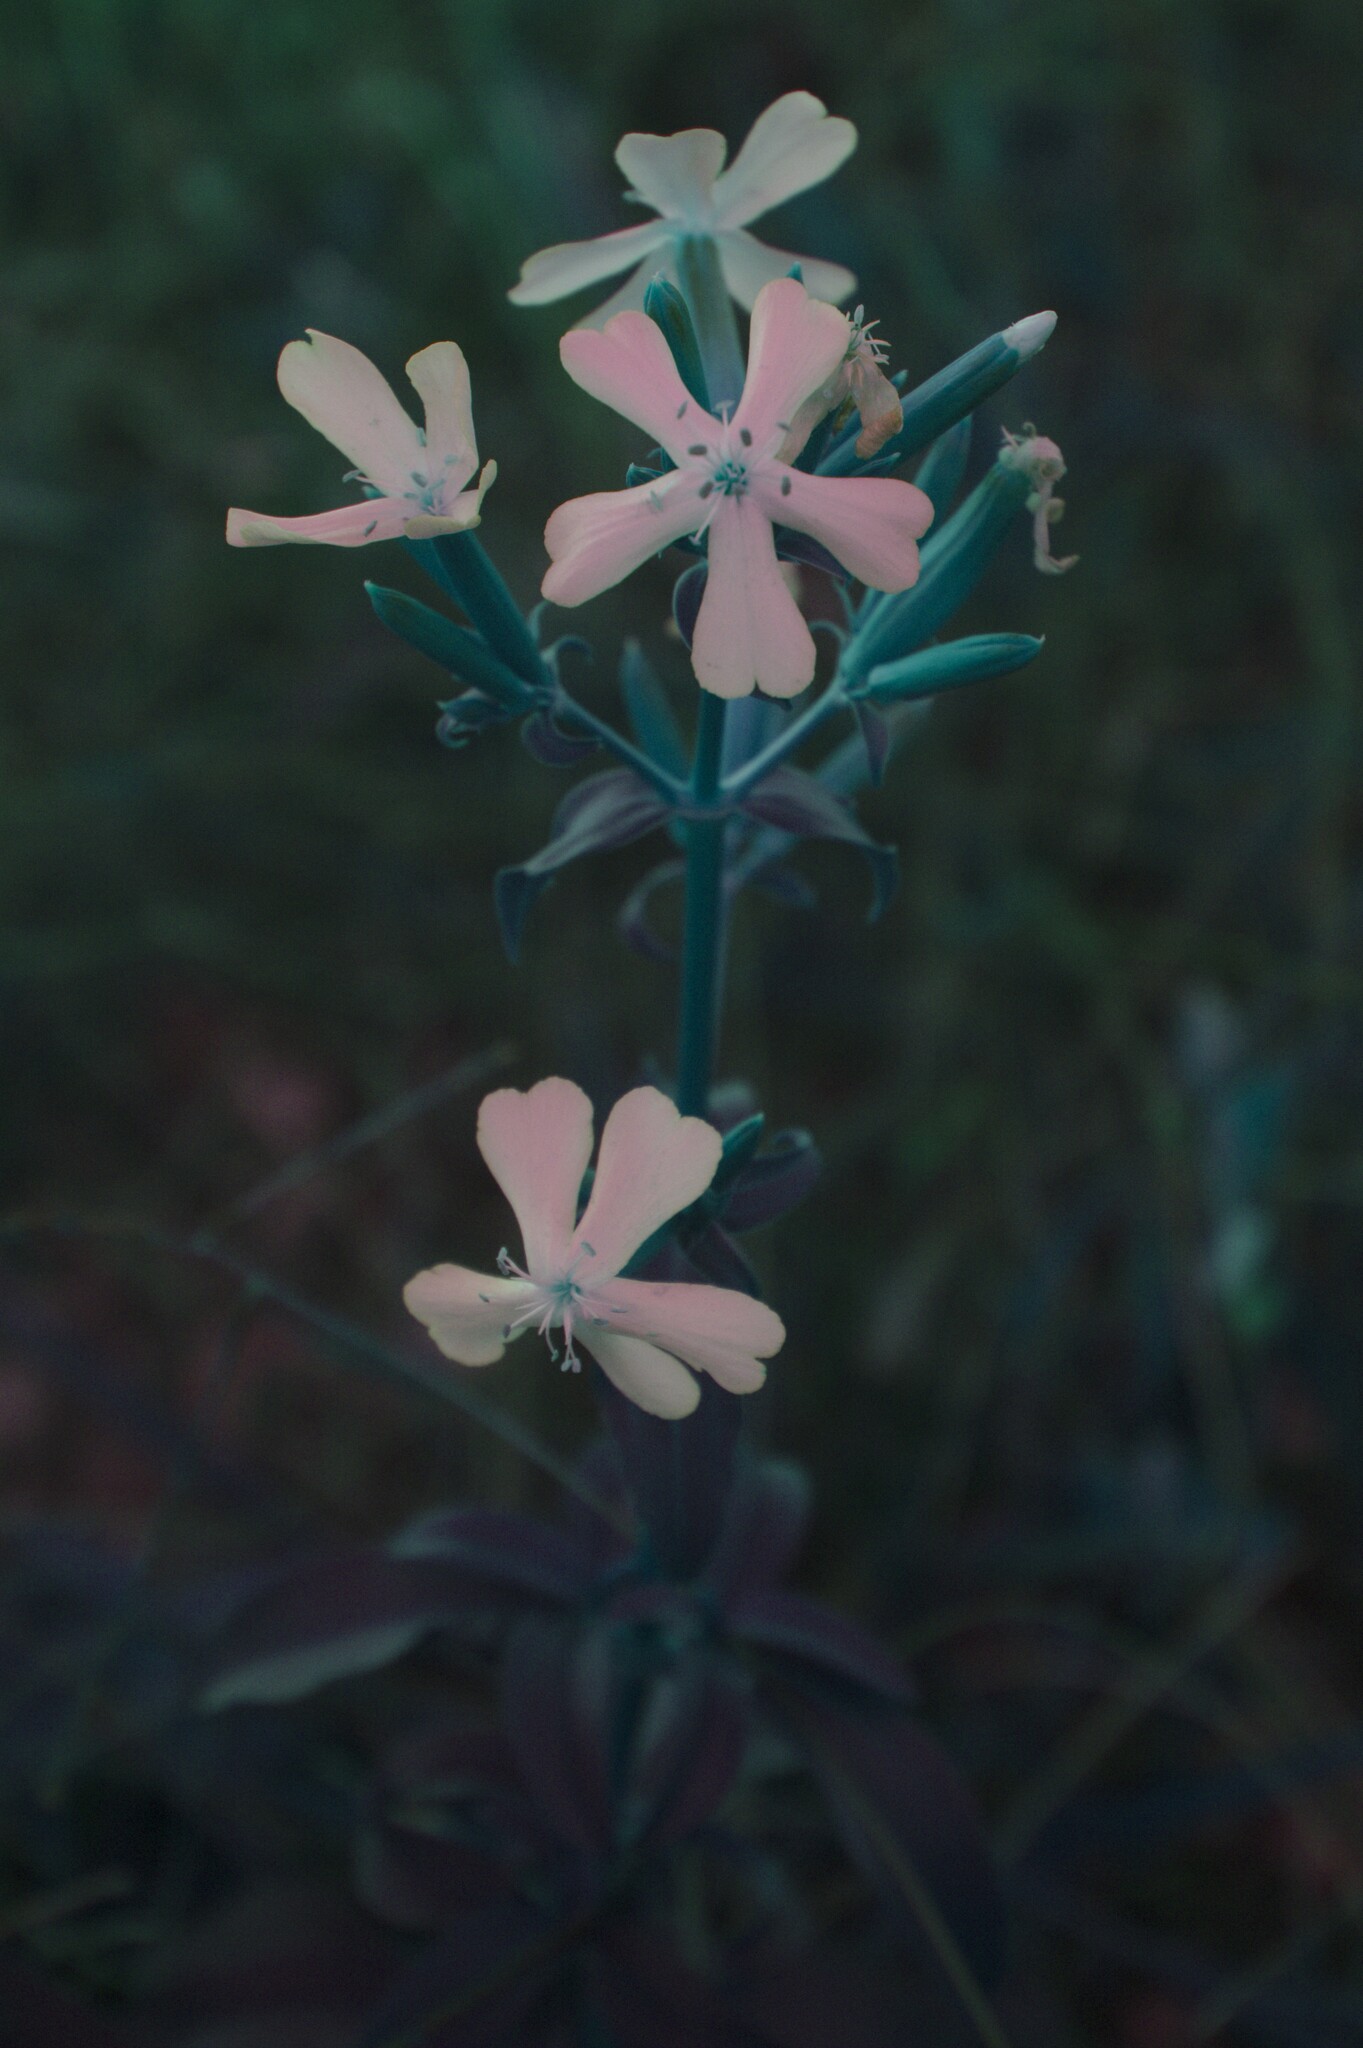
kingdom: Plantae
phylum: Tracheophyta
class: Magnoliopsida
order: Caryophyllales
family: Caryophyllaceae
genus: Saponaria
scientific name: Saponaria officinalis
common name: Soapwort
